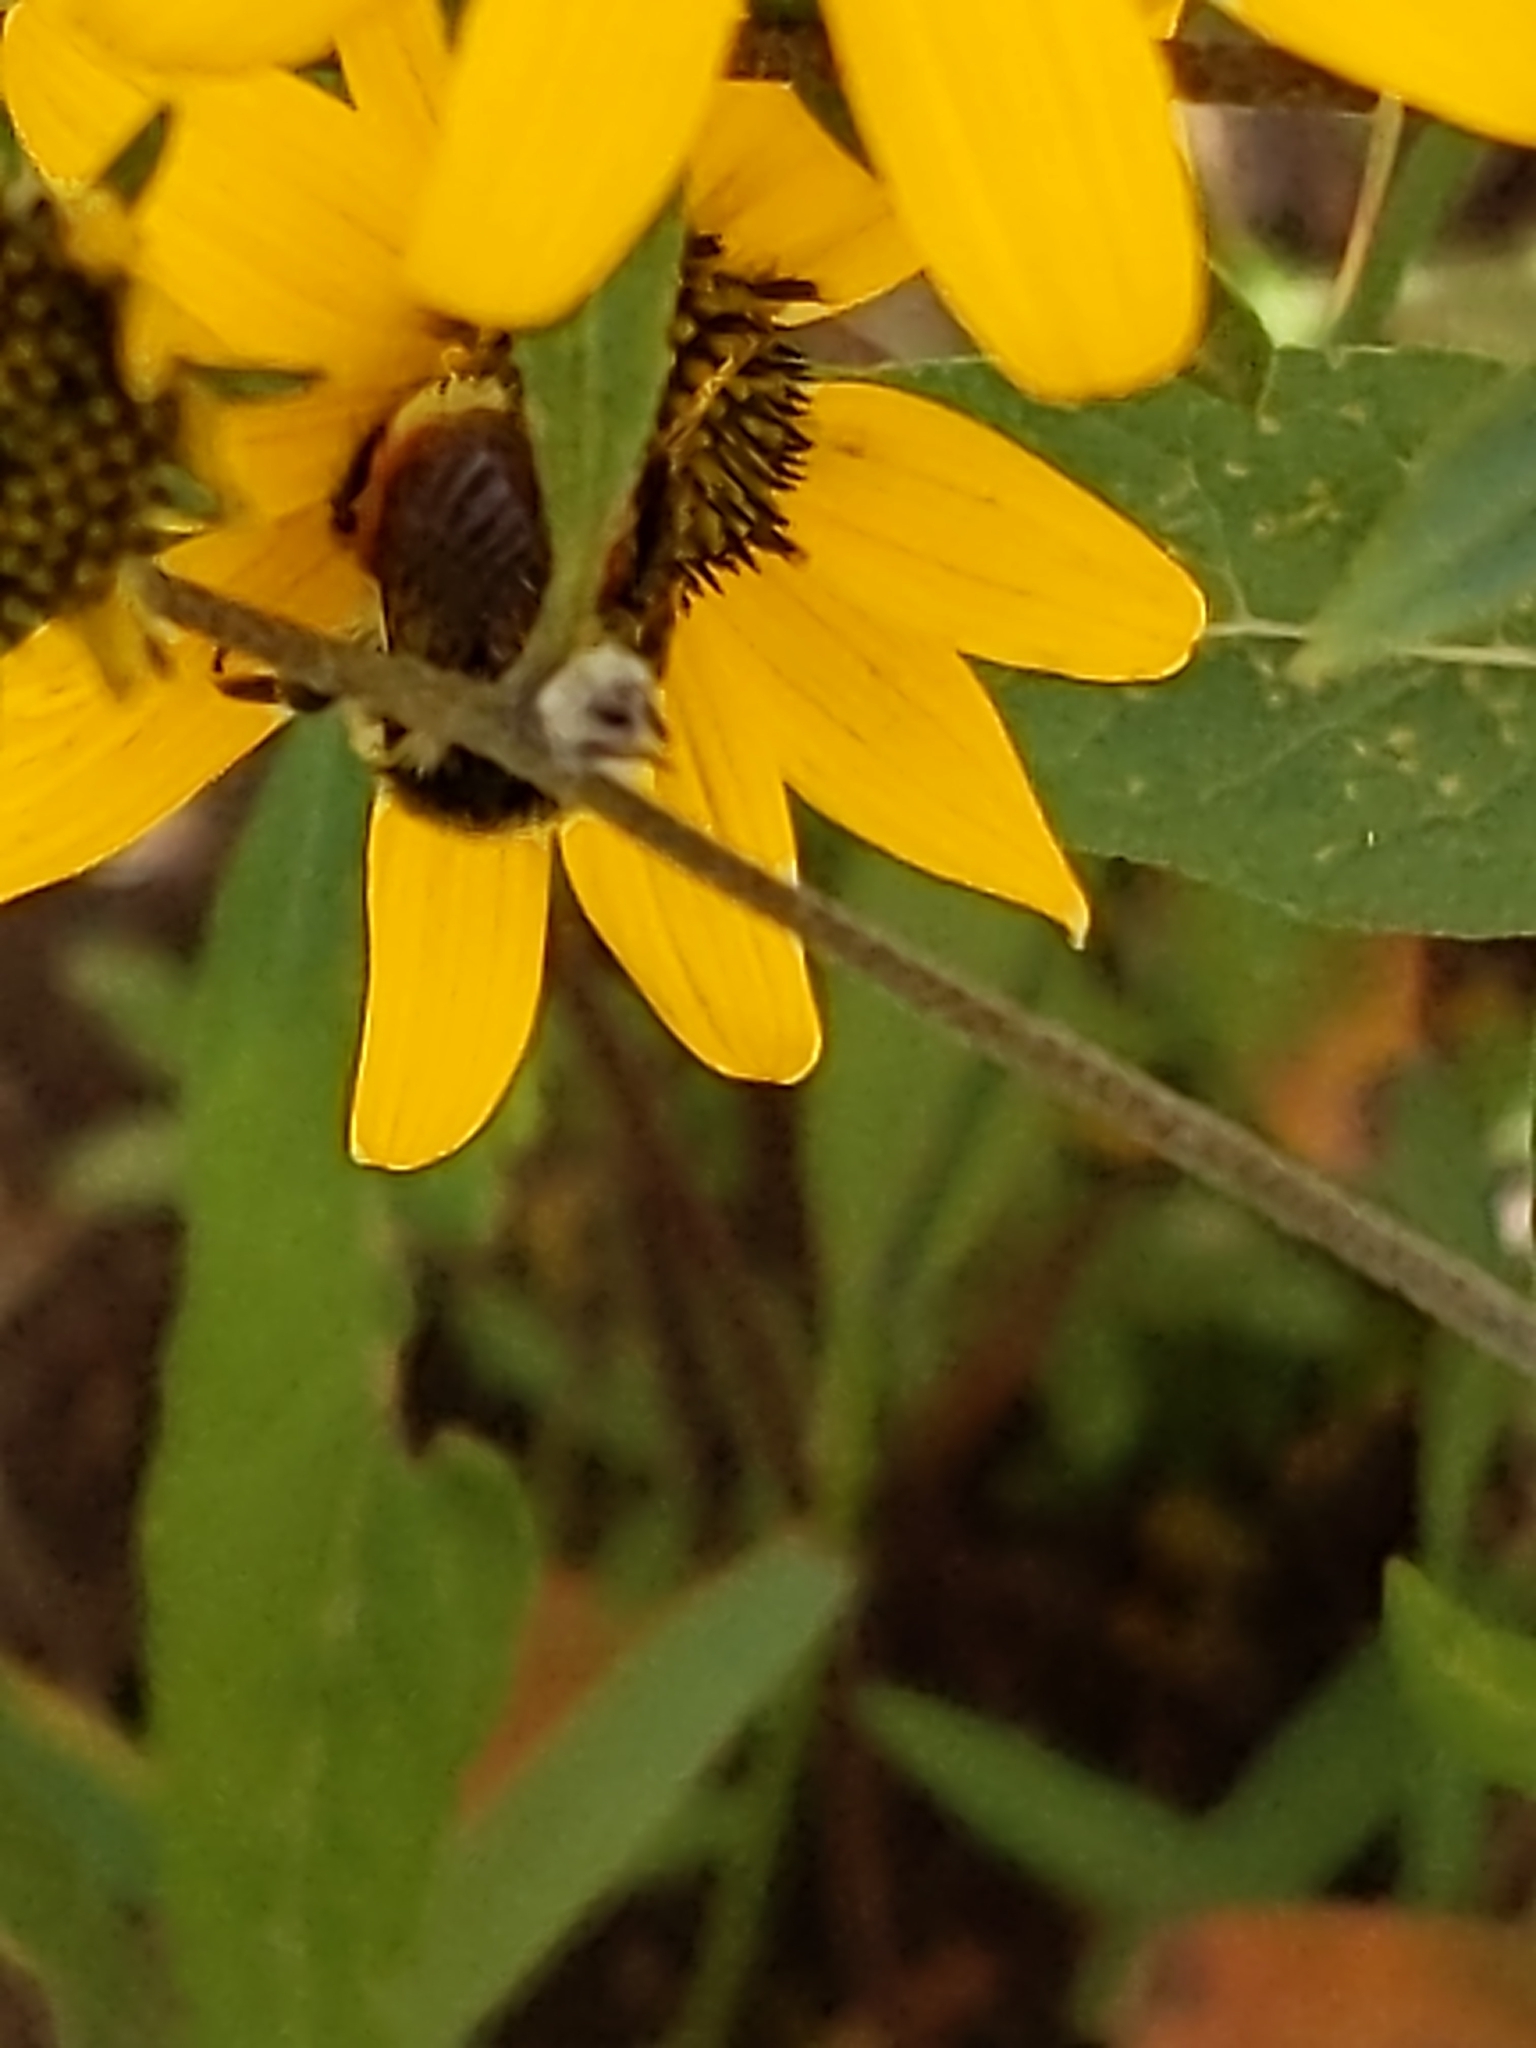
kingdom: Animalia
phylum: Arthropoda
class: Insecta
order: Hymenoptera
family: Apidae
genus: Bombus
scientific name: Bombus bifarius
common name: Two form bumble bee
